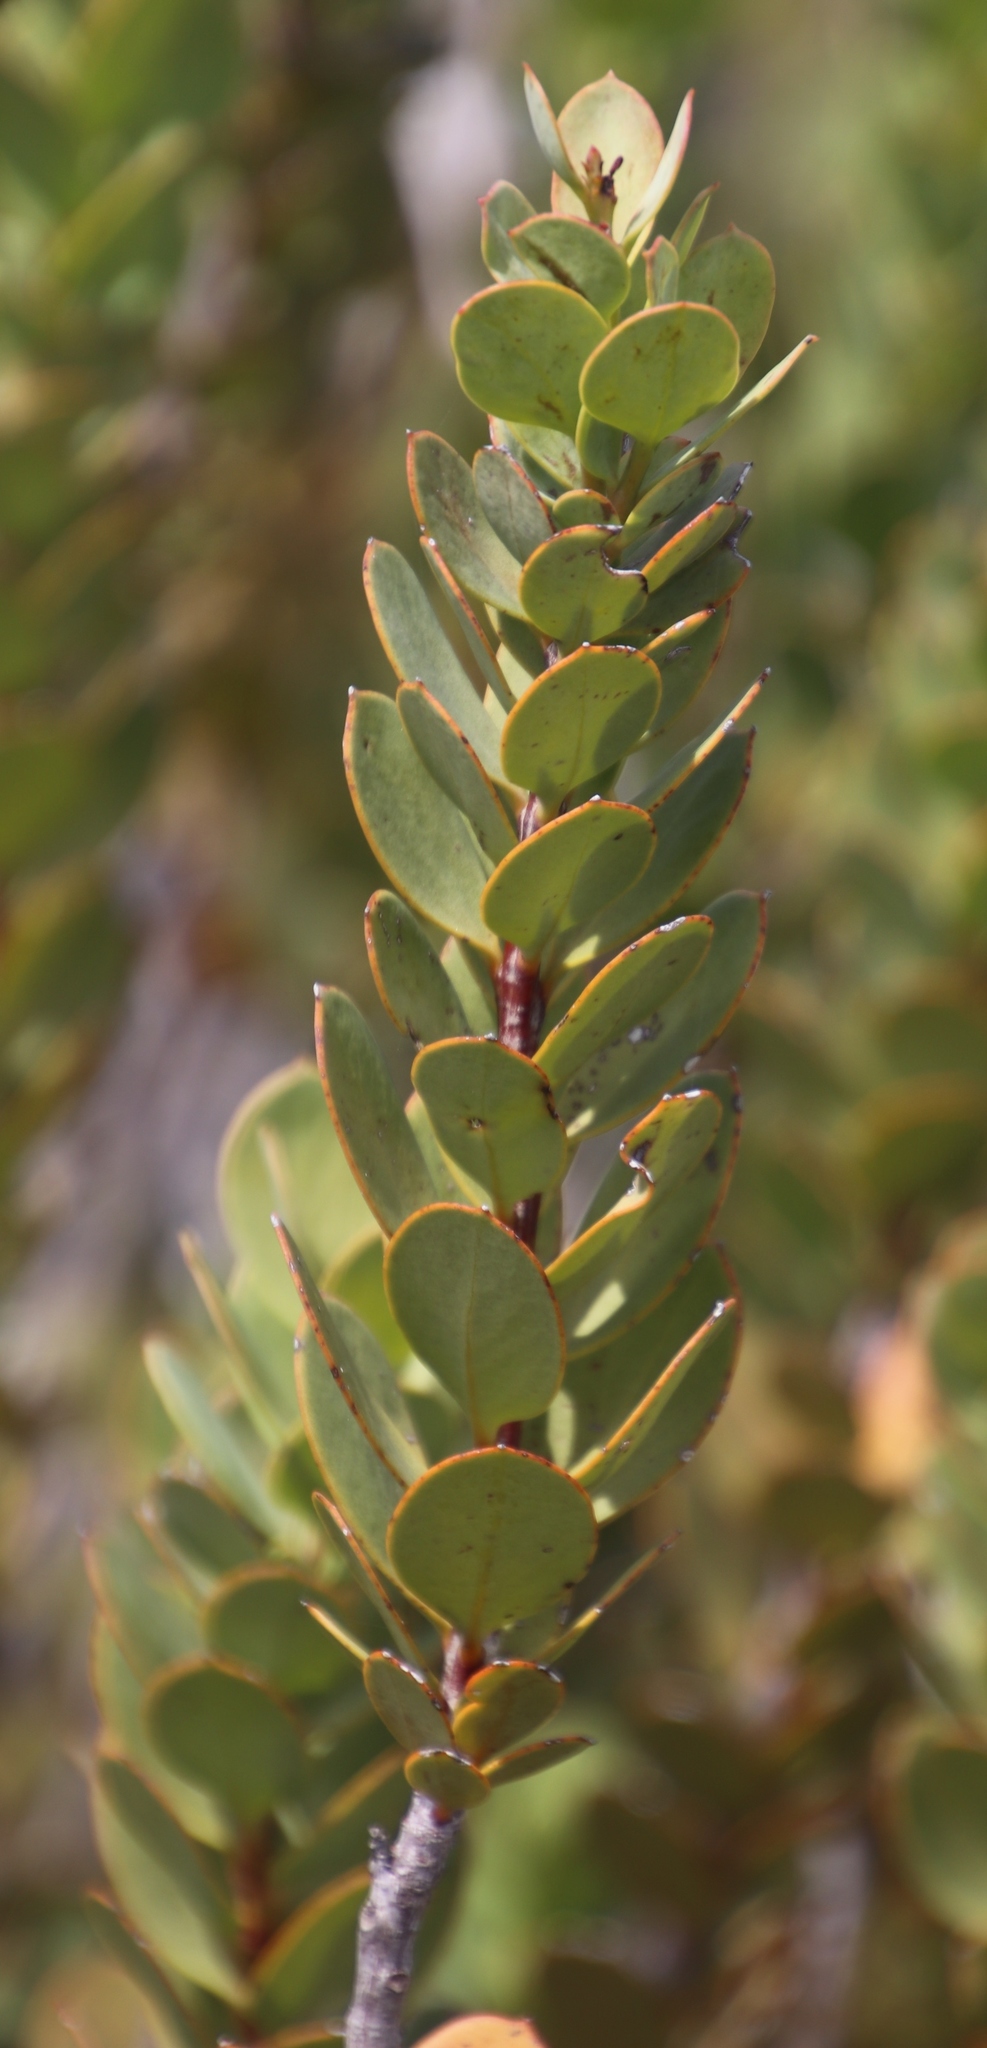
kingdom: Plantae
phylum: Tracheophyta
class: Magnoliopsida
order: Santalales
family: Santalaceae
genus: Osyris
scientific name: Osyris speciosa
